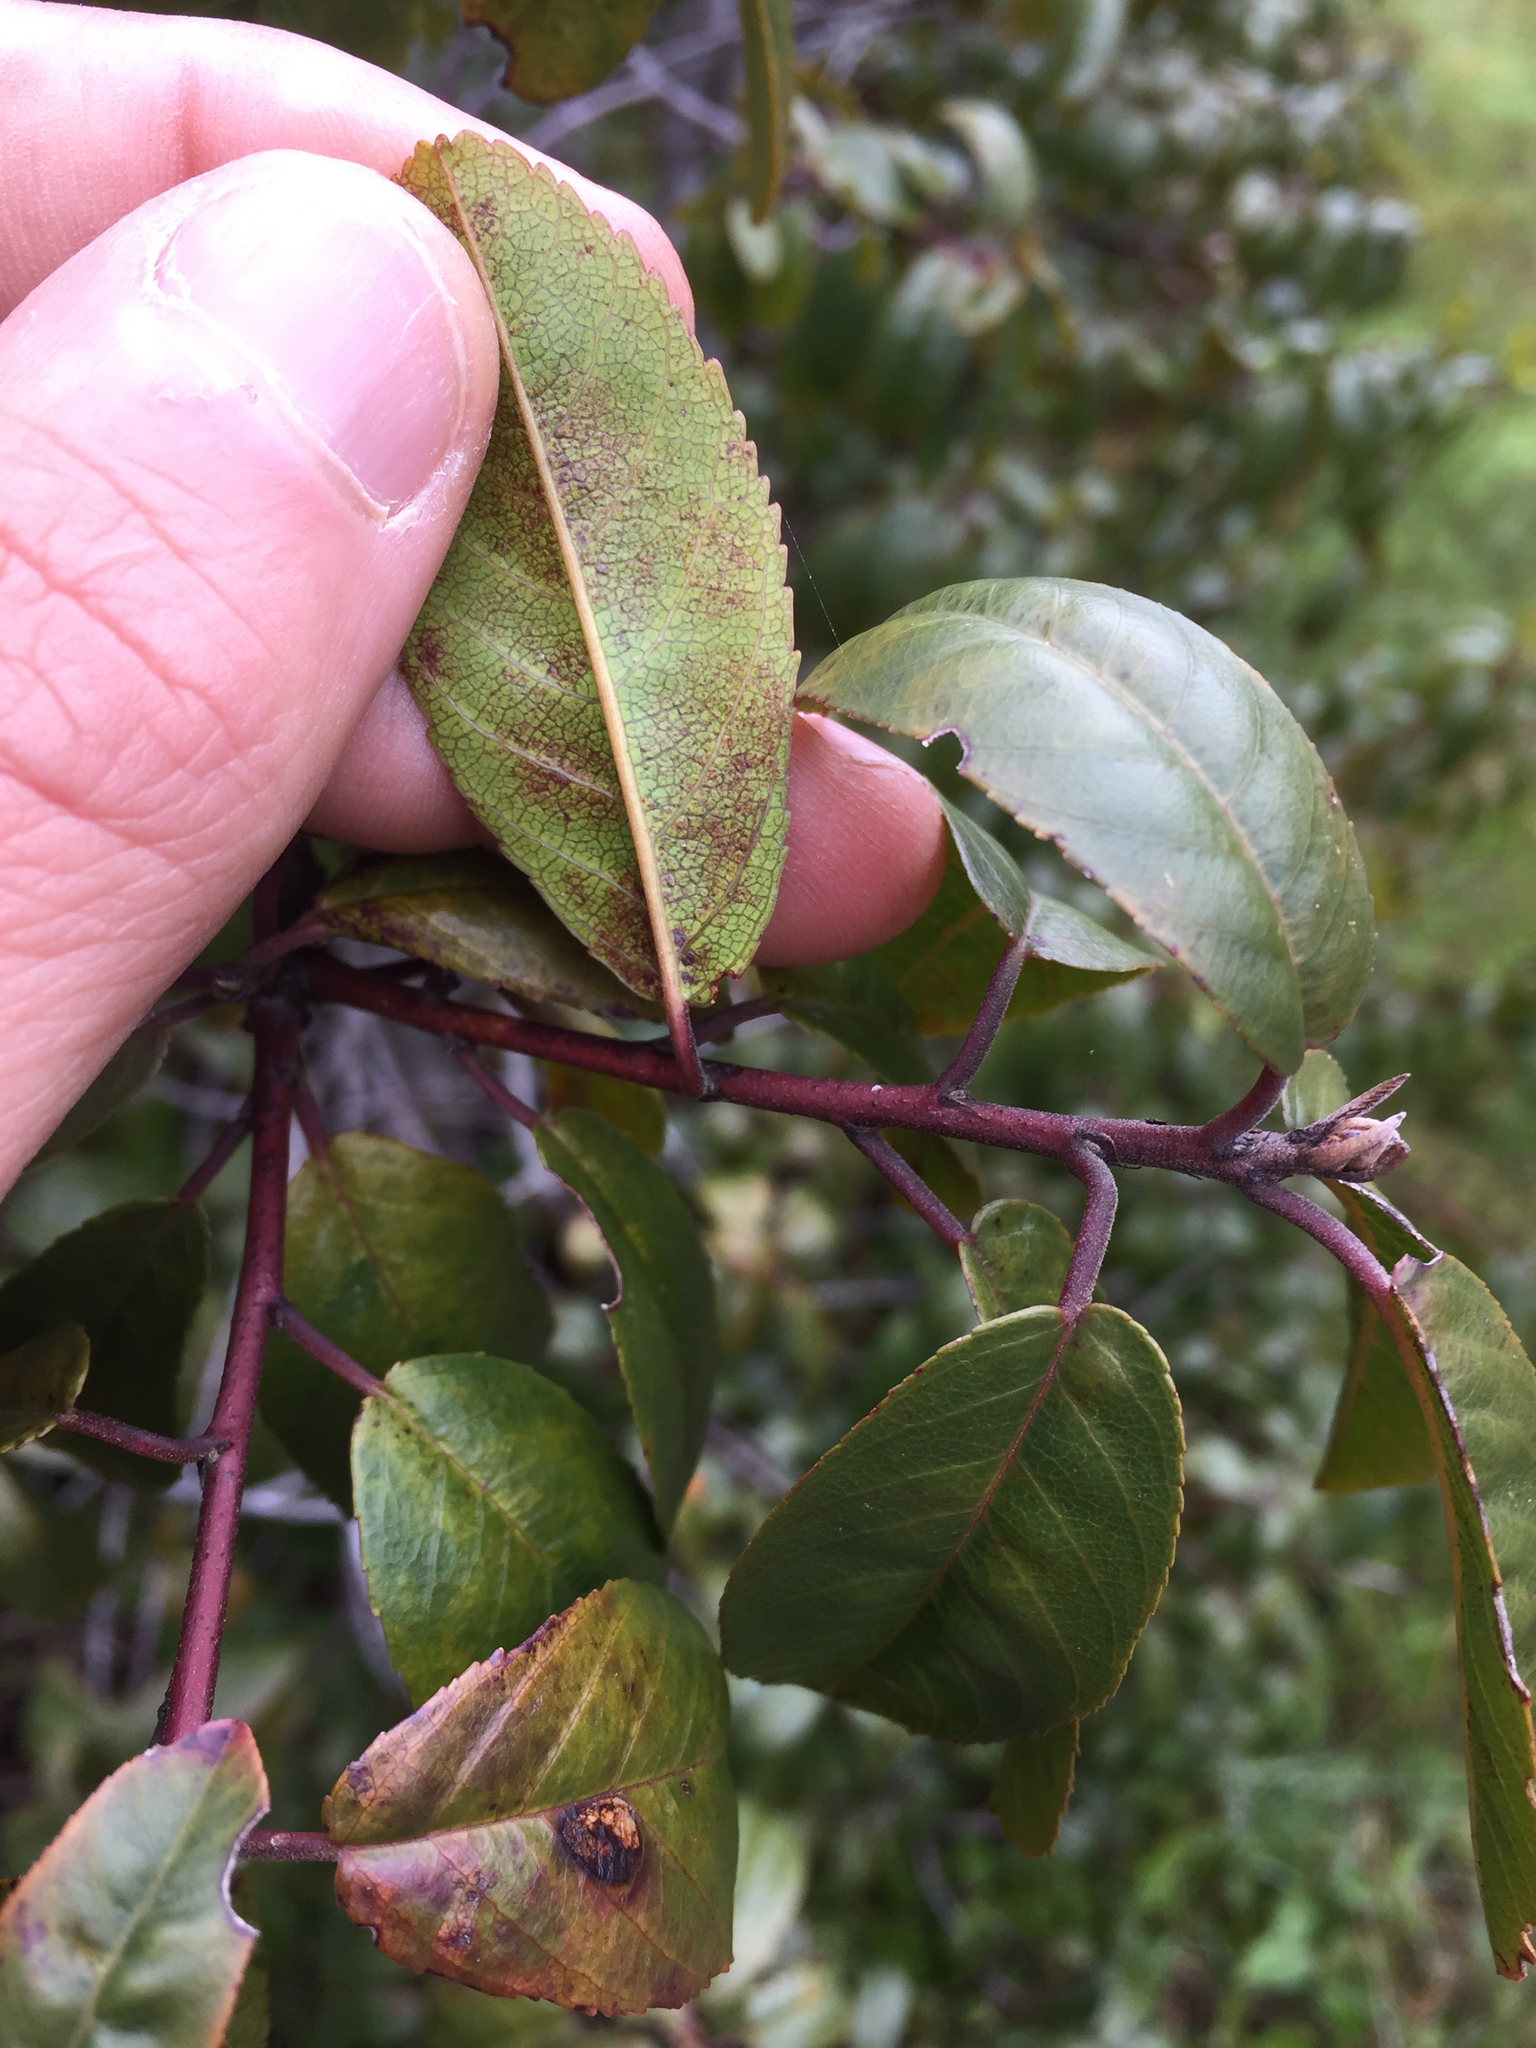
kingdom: Plantae
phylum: Tracheophyta
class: Magnoliopsida
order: Rosales
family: Rhamnaceae
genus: Frangula
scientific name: Frangula californica
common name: California buckthorn
